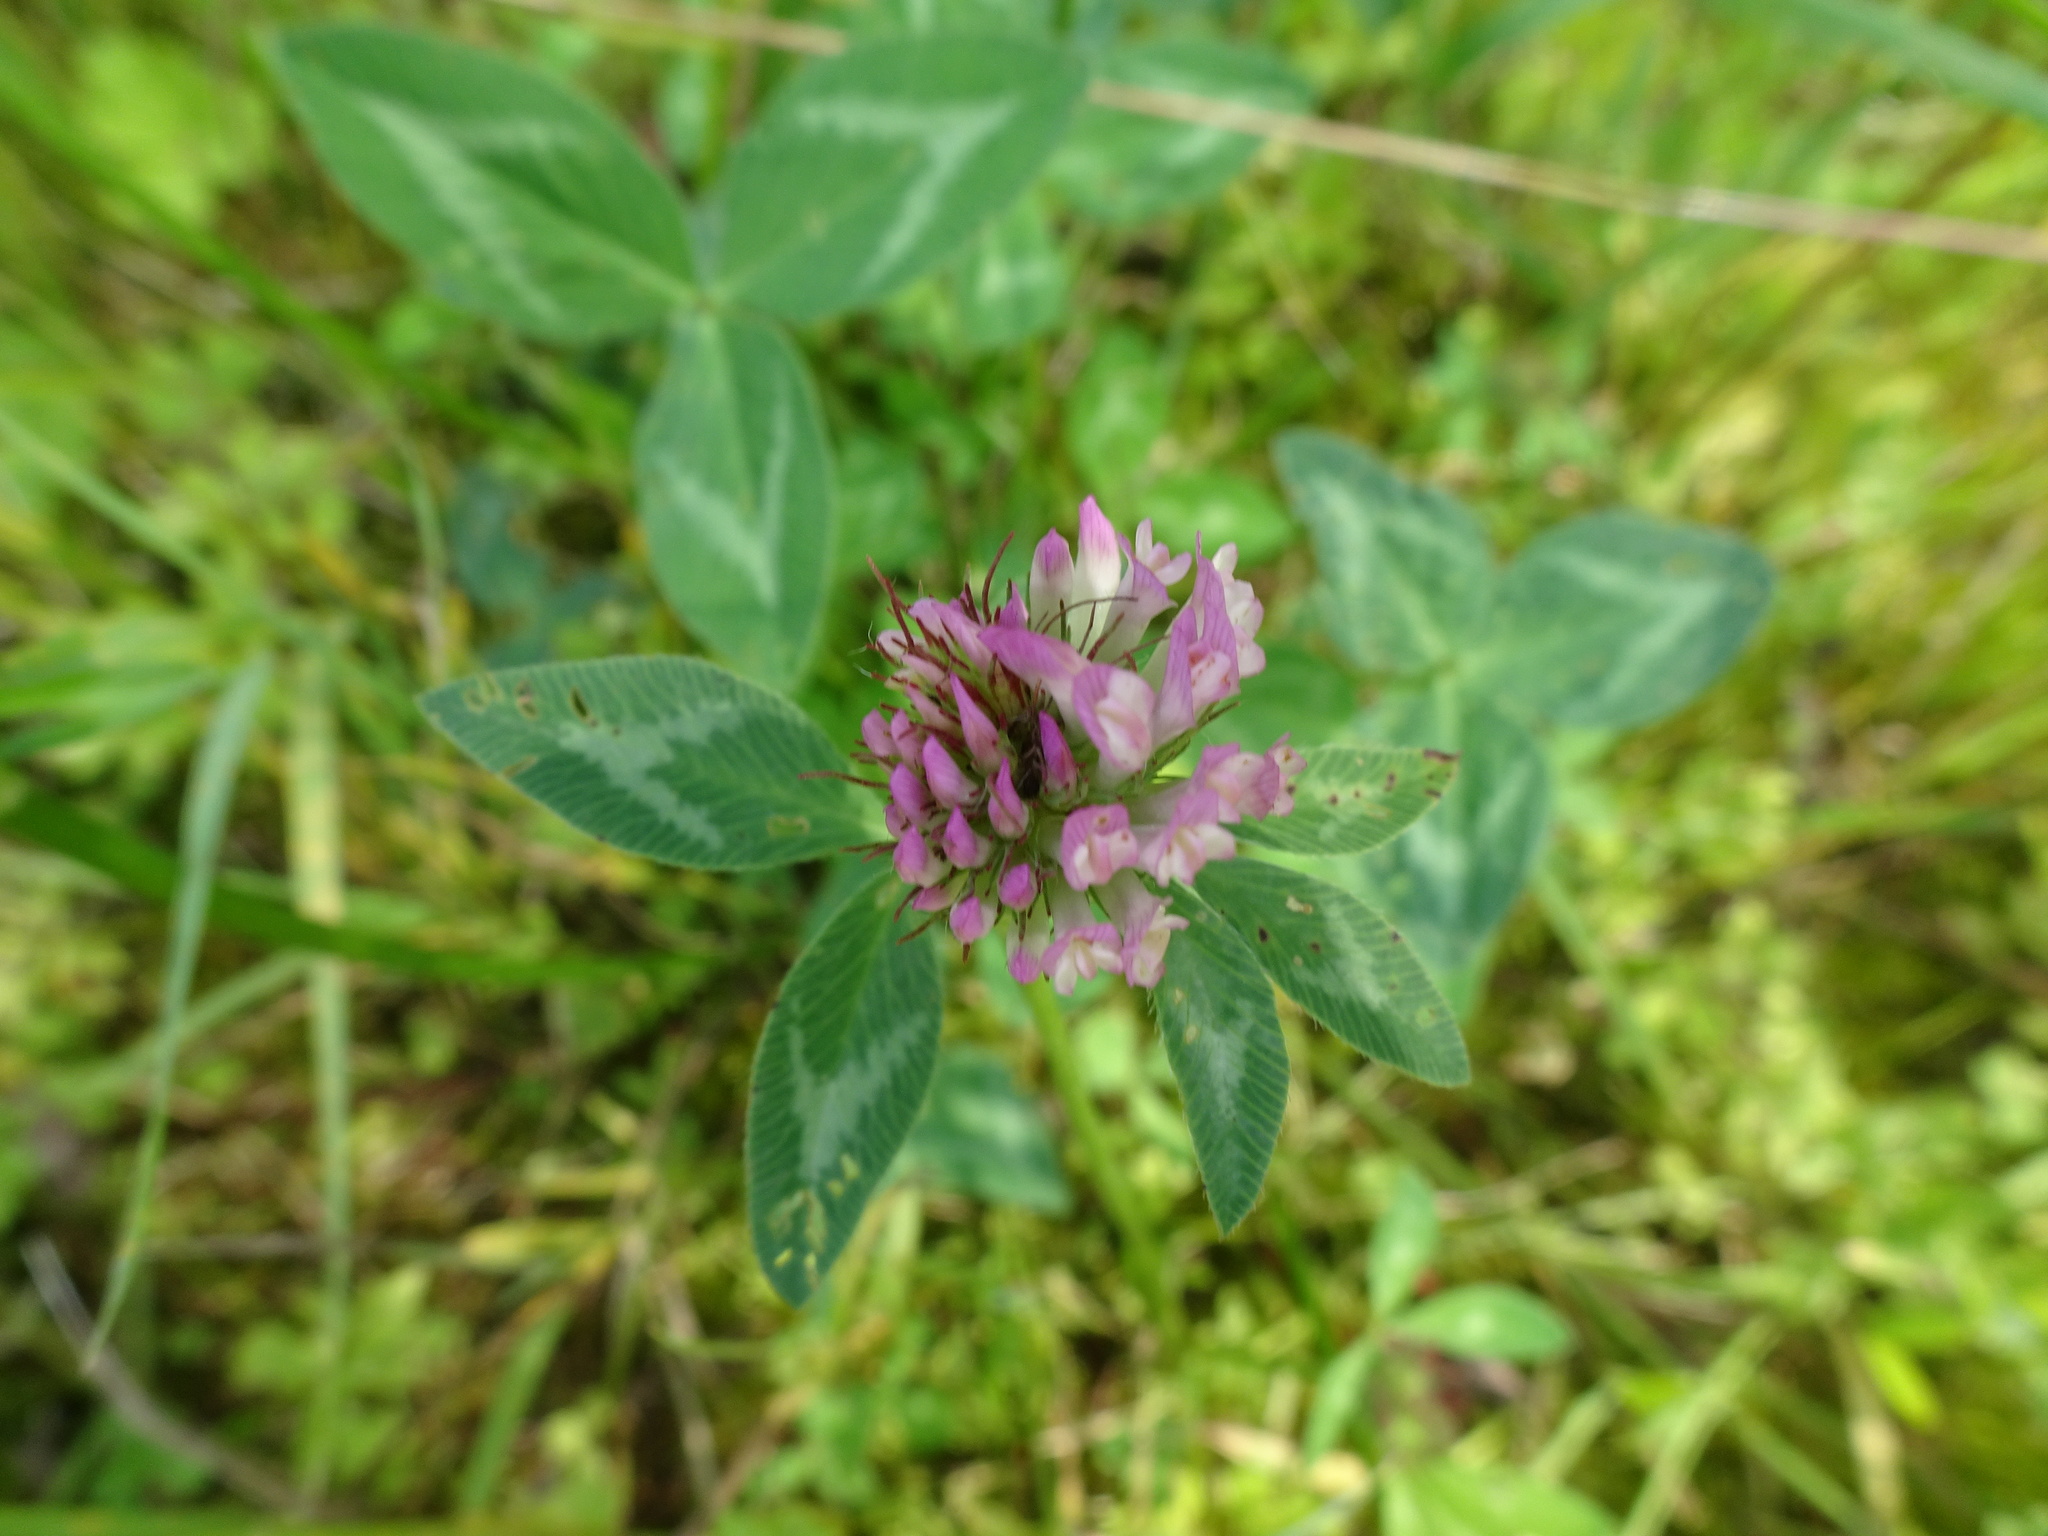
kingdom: Plantae
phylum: Tracheophyta
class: Magnoliopsida
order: Fabales
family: Fabaceae
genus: Trifolium
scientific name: Trifolium pratense
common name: Red clover
